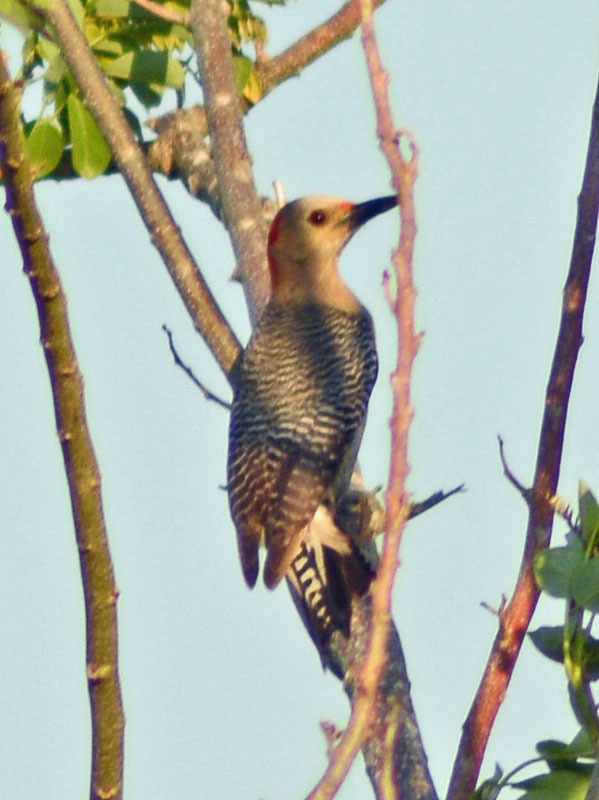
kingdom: Animalia
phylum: Chordata
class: Aves
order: Piciformes
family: Picidae
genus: Melanerpes
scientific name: Melanerpes aurifrons
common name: Golden-fronted woodpecker
